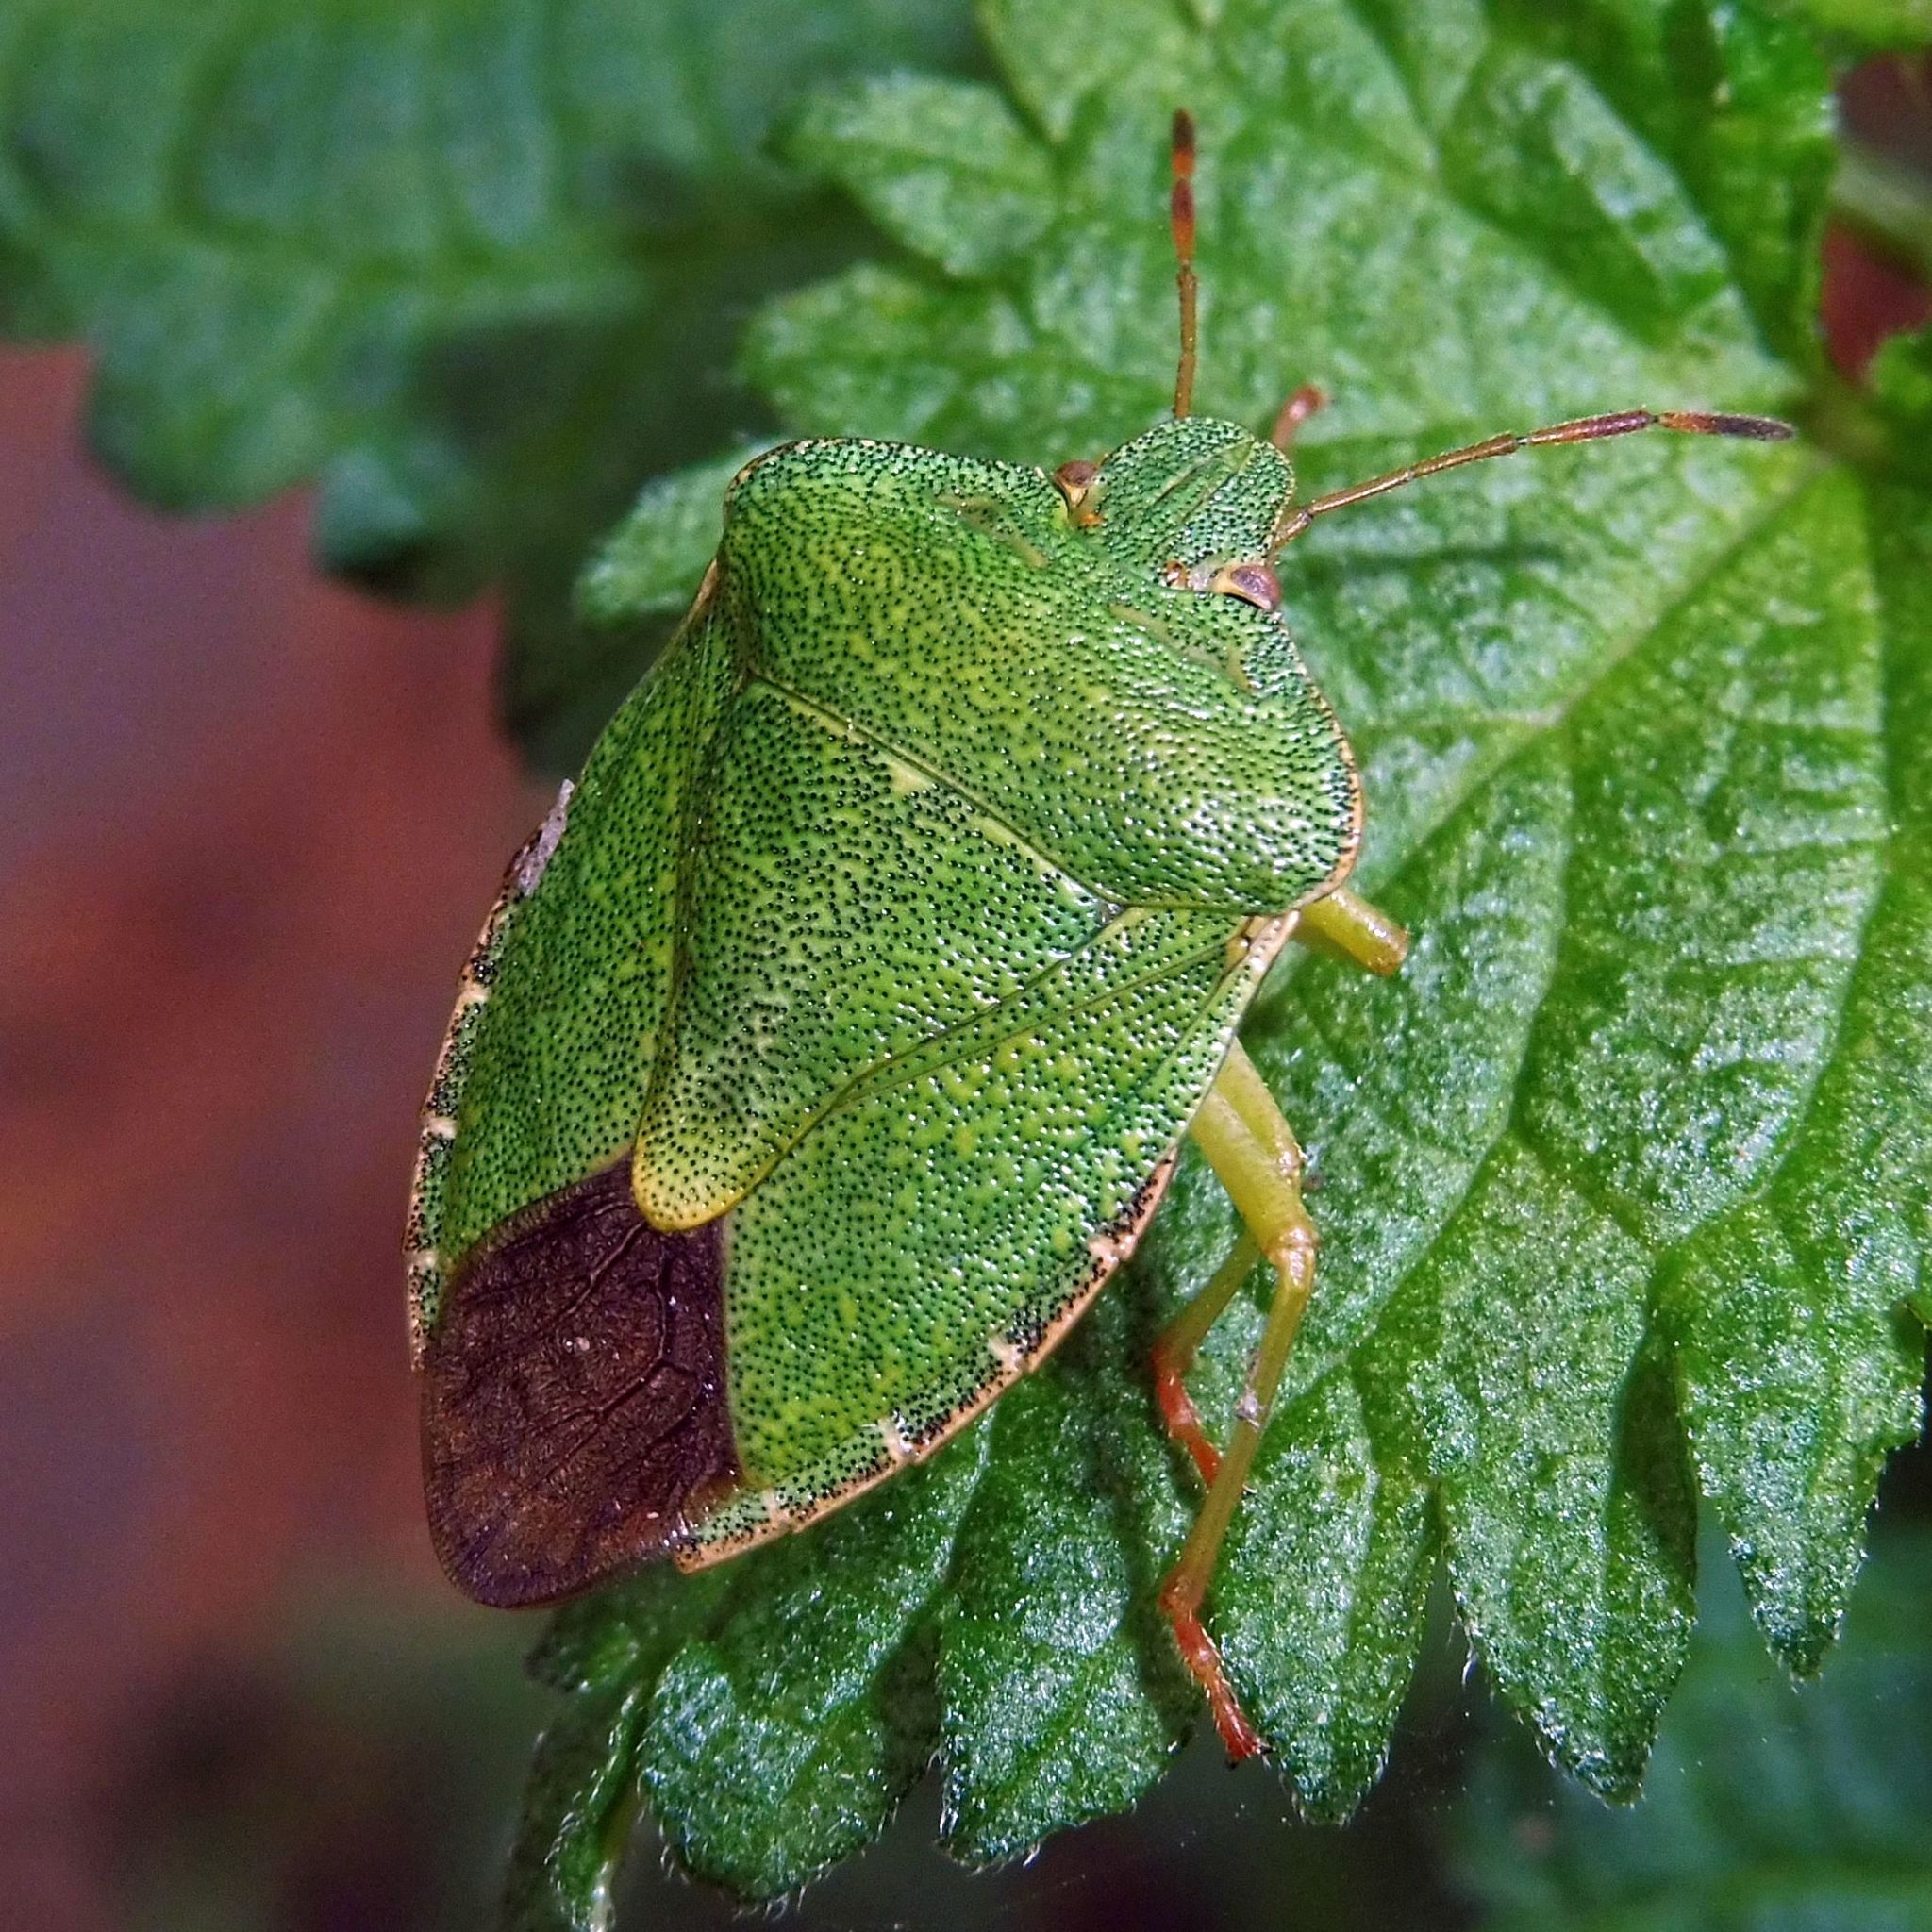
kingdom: Animalia
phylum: Arthropoda
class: Insecta
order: Hemiptera
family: Pentatomidae
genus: Palomena
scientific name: Palomena prasina
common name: Green shieldbug
